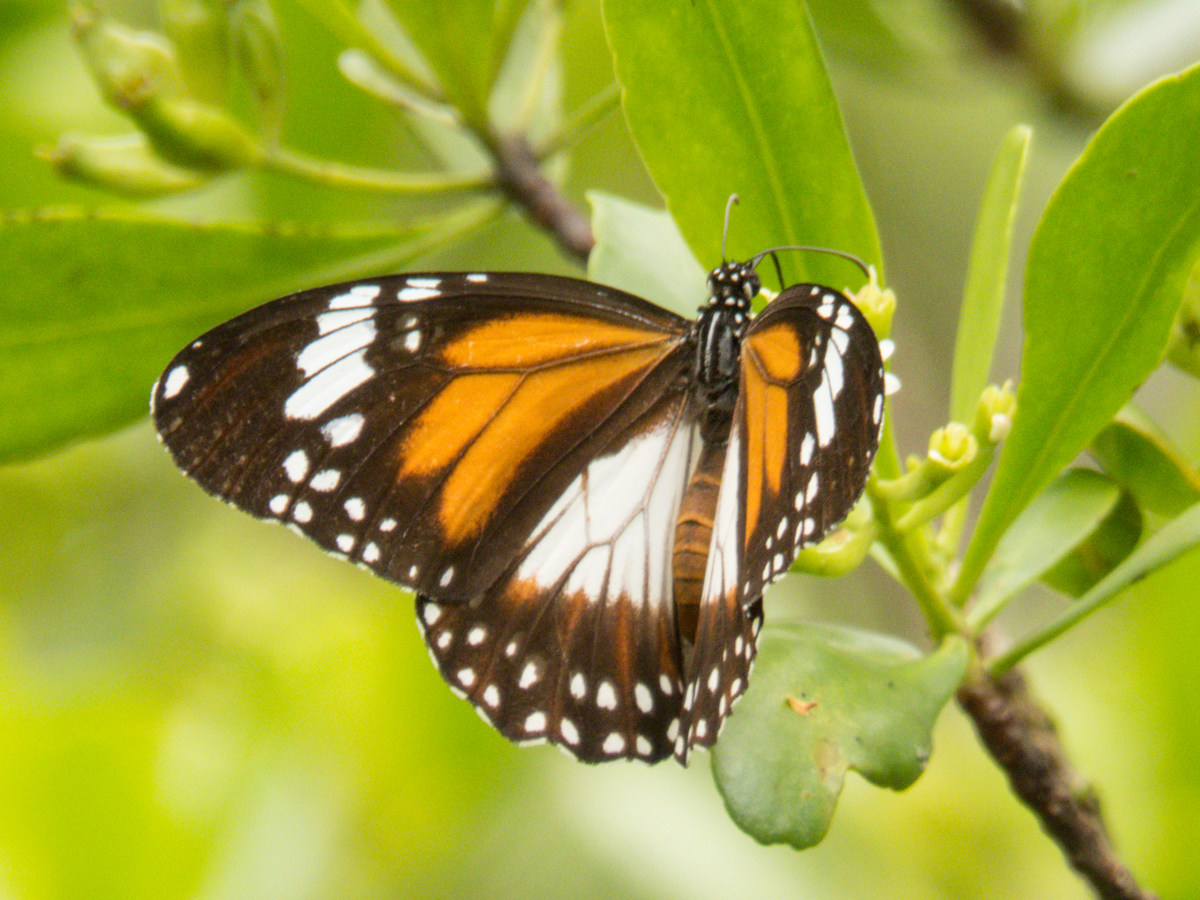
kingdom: Animalia
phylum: Arthropoda
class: Insecta
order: Lepidoptera
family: Nymphalidae
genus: Danaus
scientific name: Danaus affinis
